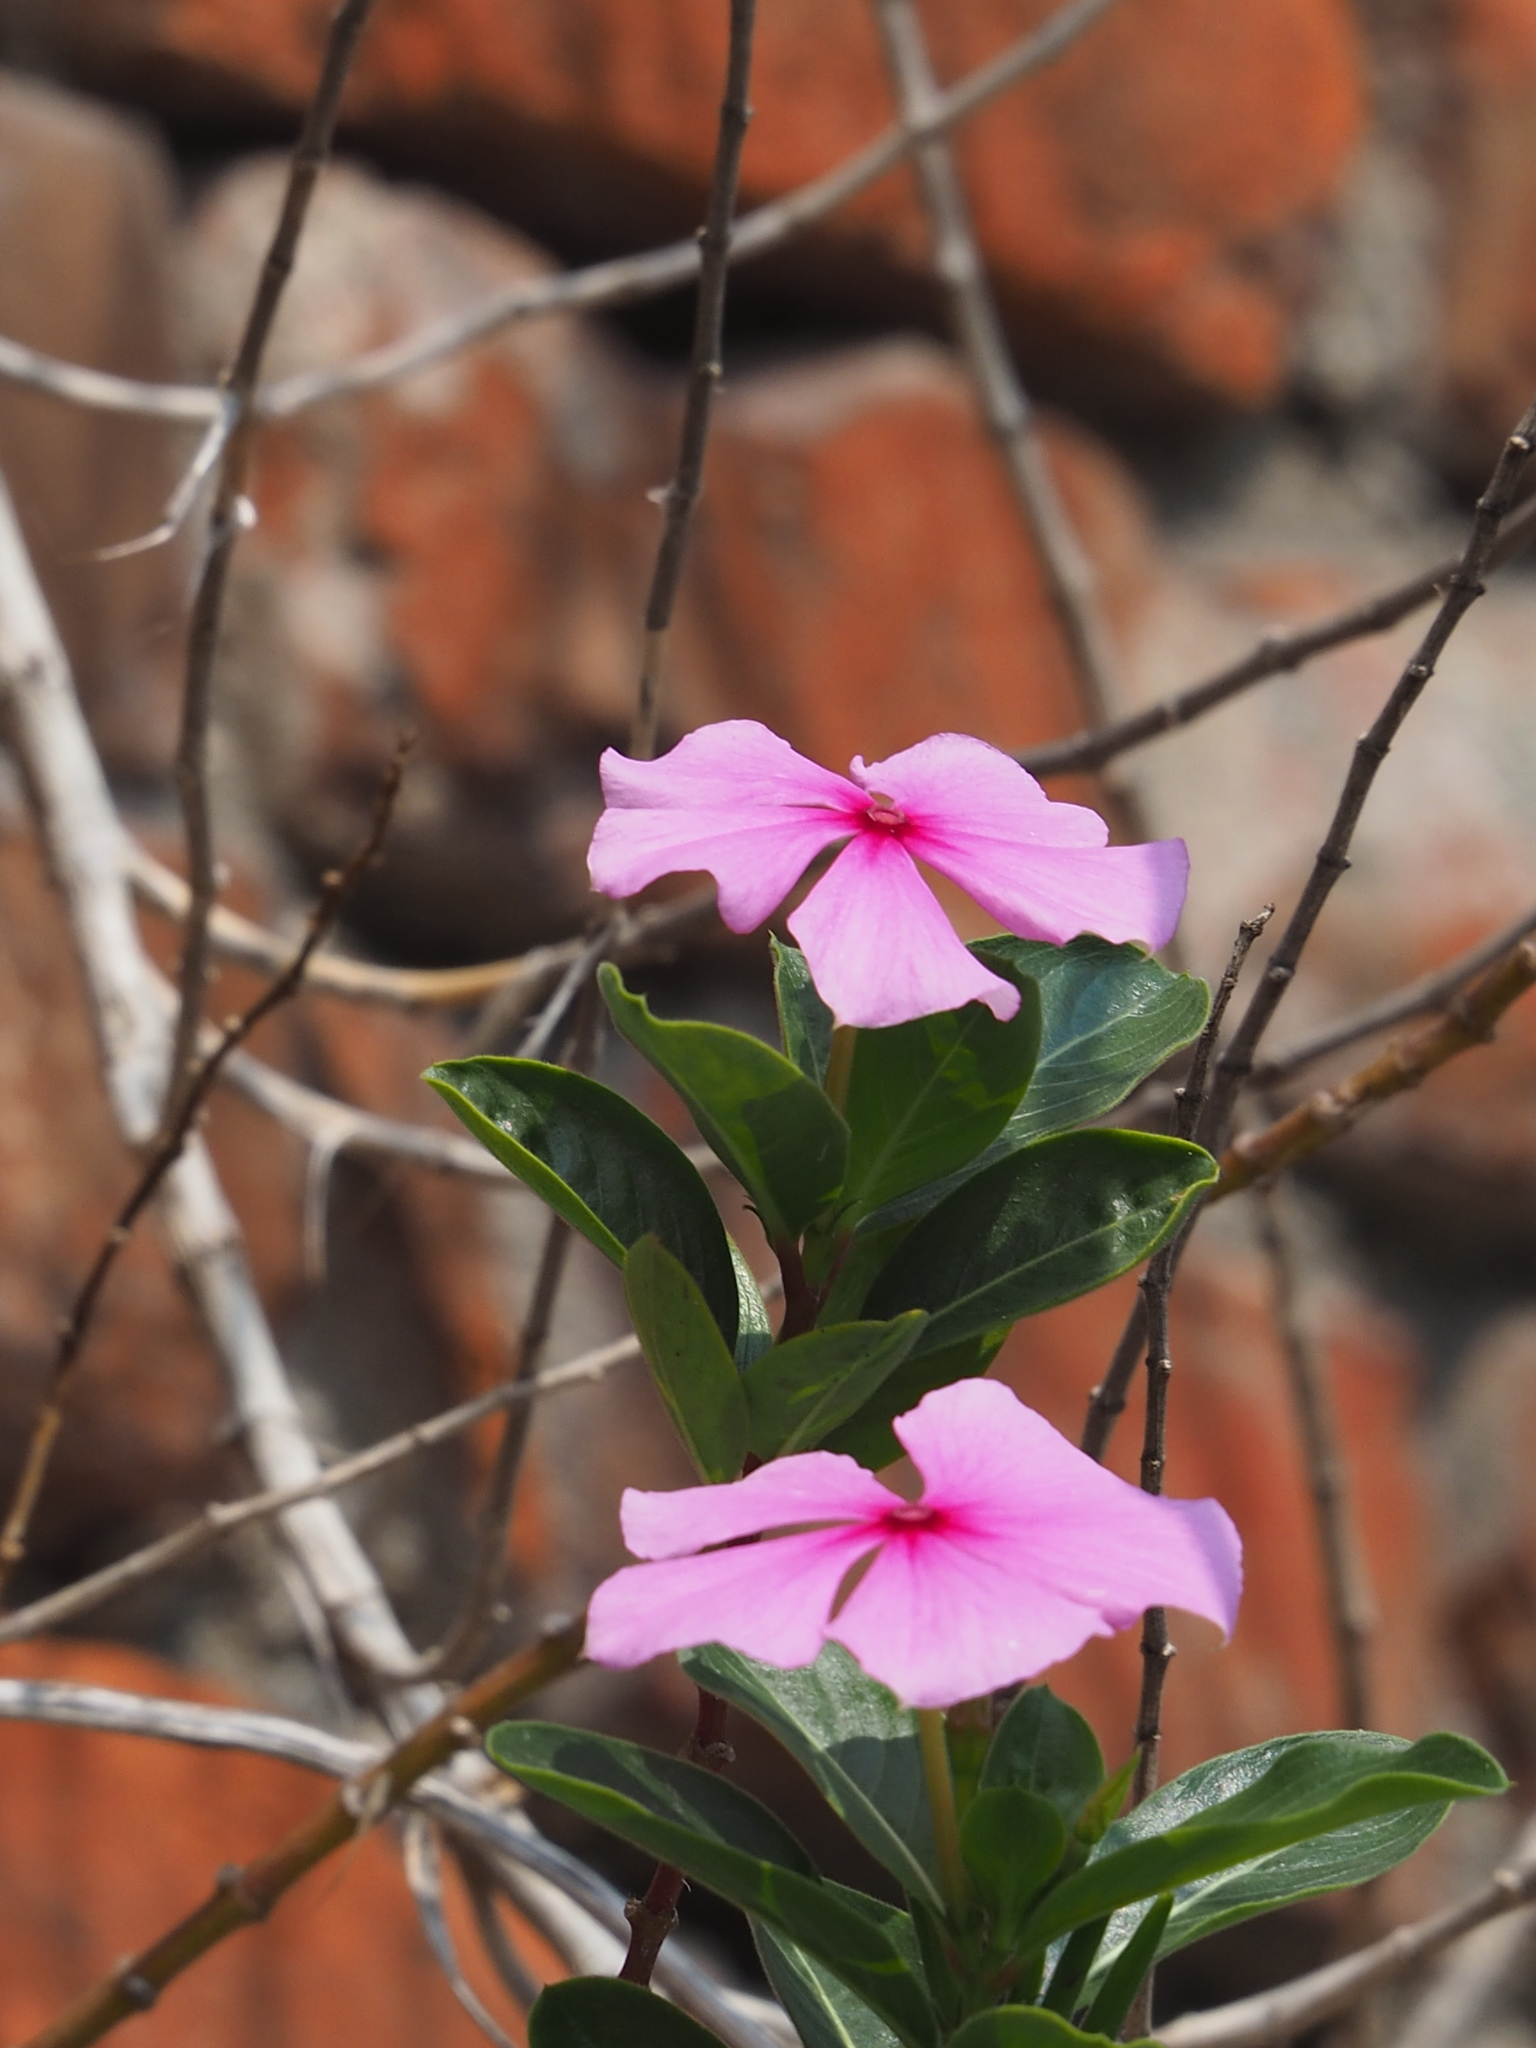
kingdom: Plantae
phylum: Tracheophyta
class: Magnoliopsida
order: Gentianales
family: Apocynaceae
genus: Catharanthus
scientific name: Catharanthus roseus
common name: Madagascar periwinkle
